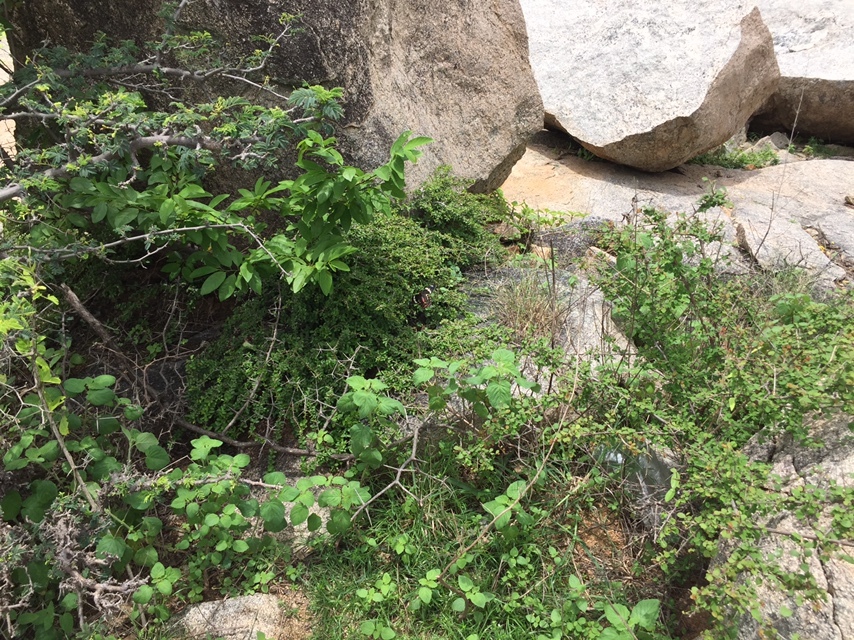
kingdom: Animalia
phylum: Arthropoda
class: Insecta
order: Lepidoptera
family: Papilionidae
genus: Pachliopta
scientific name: Pachliopta hector
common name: Crimson rose
